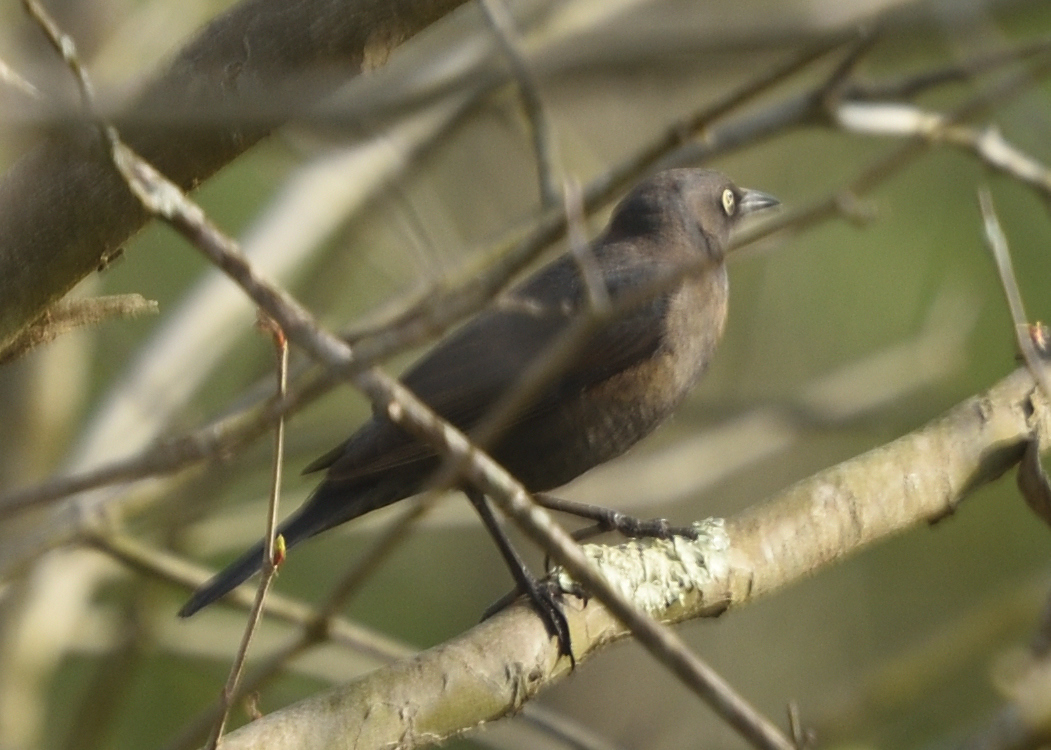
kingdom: Animalia
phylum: Chordata
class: Aves
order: Passeriformes
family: Icteridae
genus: Euphagus
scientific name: Euphagus carolinus
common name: Rusty blackbird
